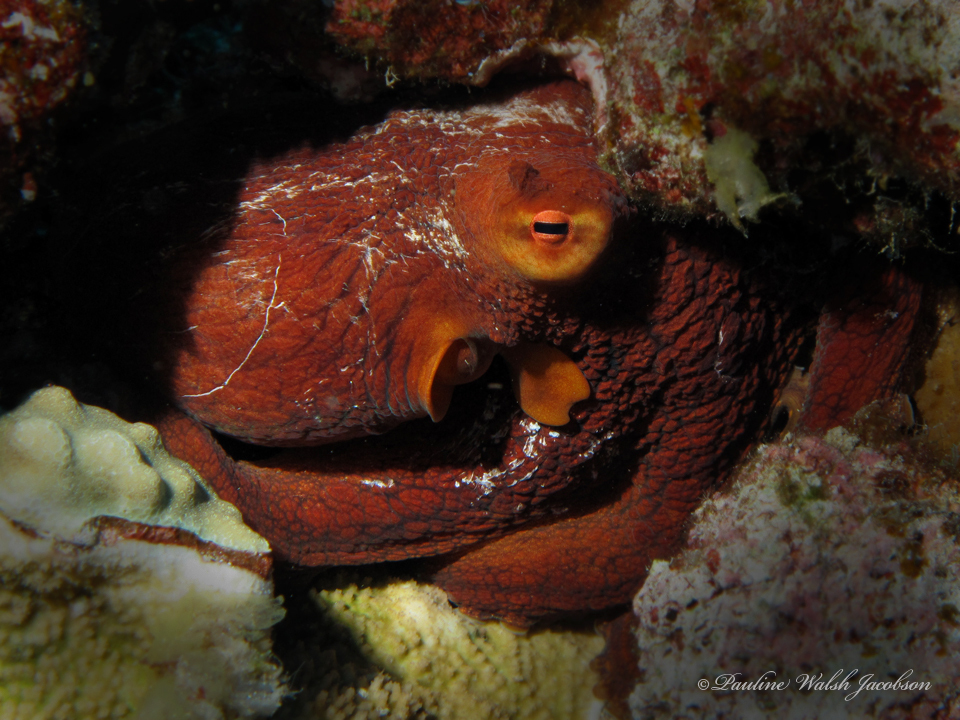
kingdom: Animalia
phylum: Mollusca
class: Cephalopoda
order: Octopoda
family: Octopodidae
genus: Octopus
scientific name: Octopus cyanea
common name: Cyane's octopus
